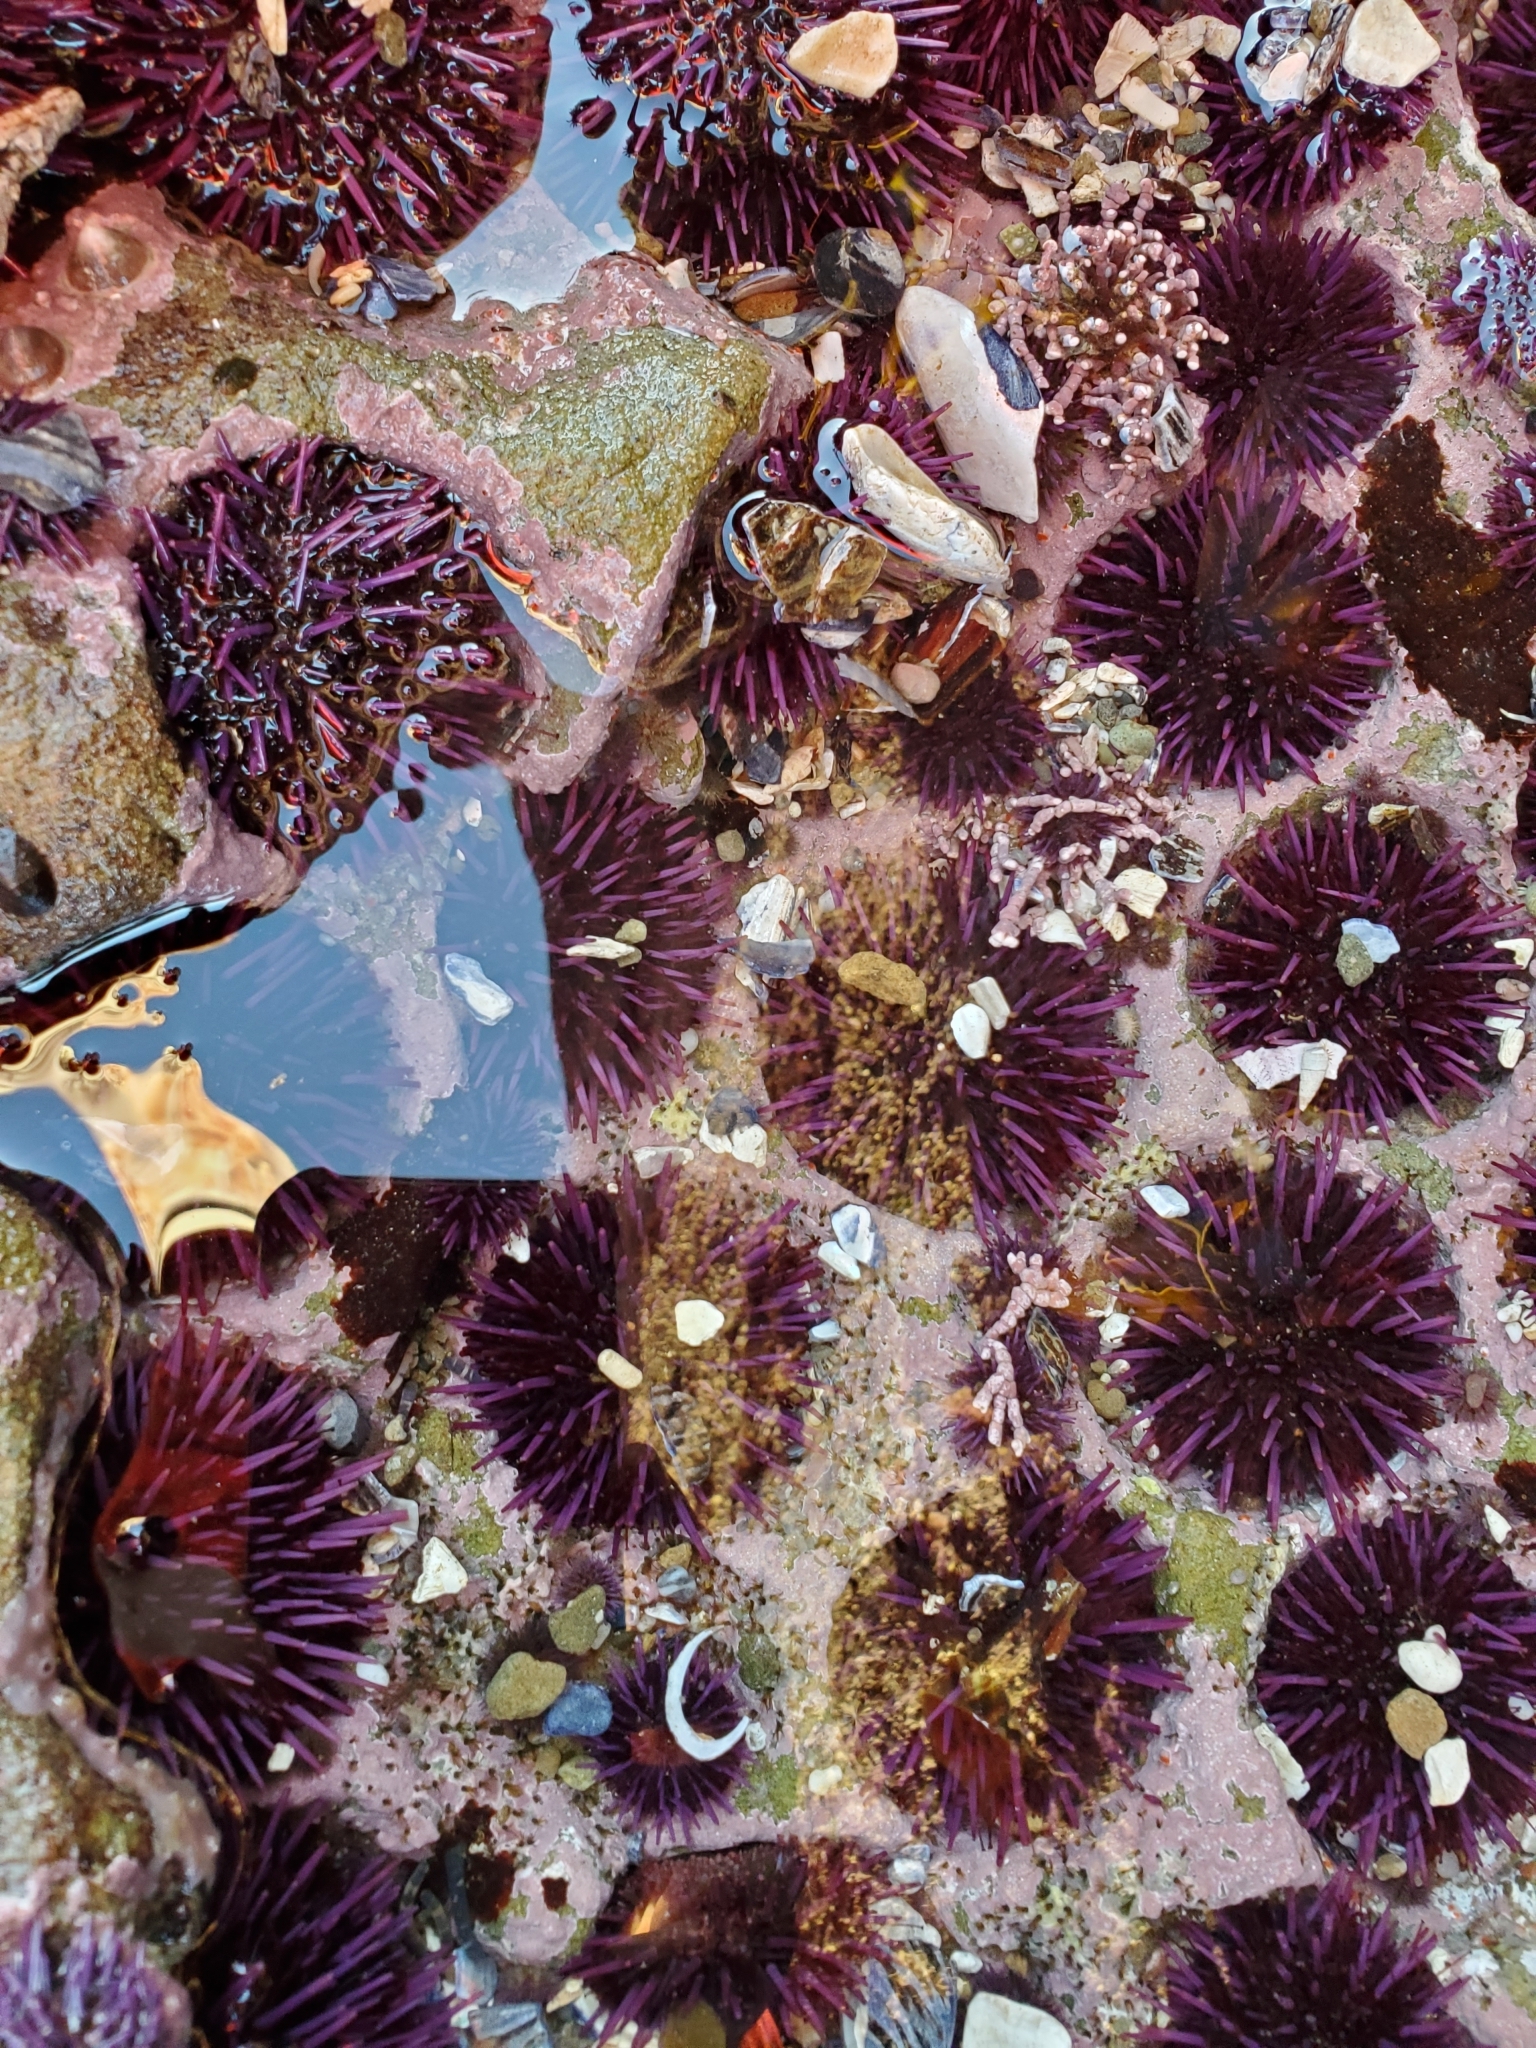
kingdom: Animalia
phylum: Echinodermata
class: Echinoidea
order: Camarodonta
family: Strongylocentrotidae
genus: Strongylocentrotus
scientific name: Strongylocentrotus purpuratus
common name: Purple sea urchin
